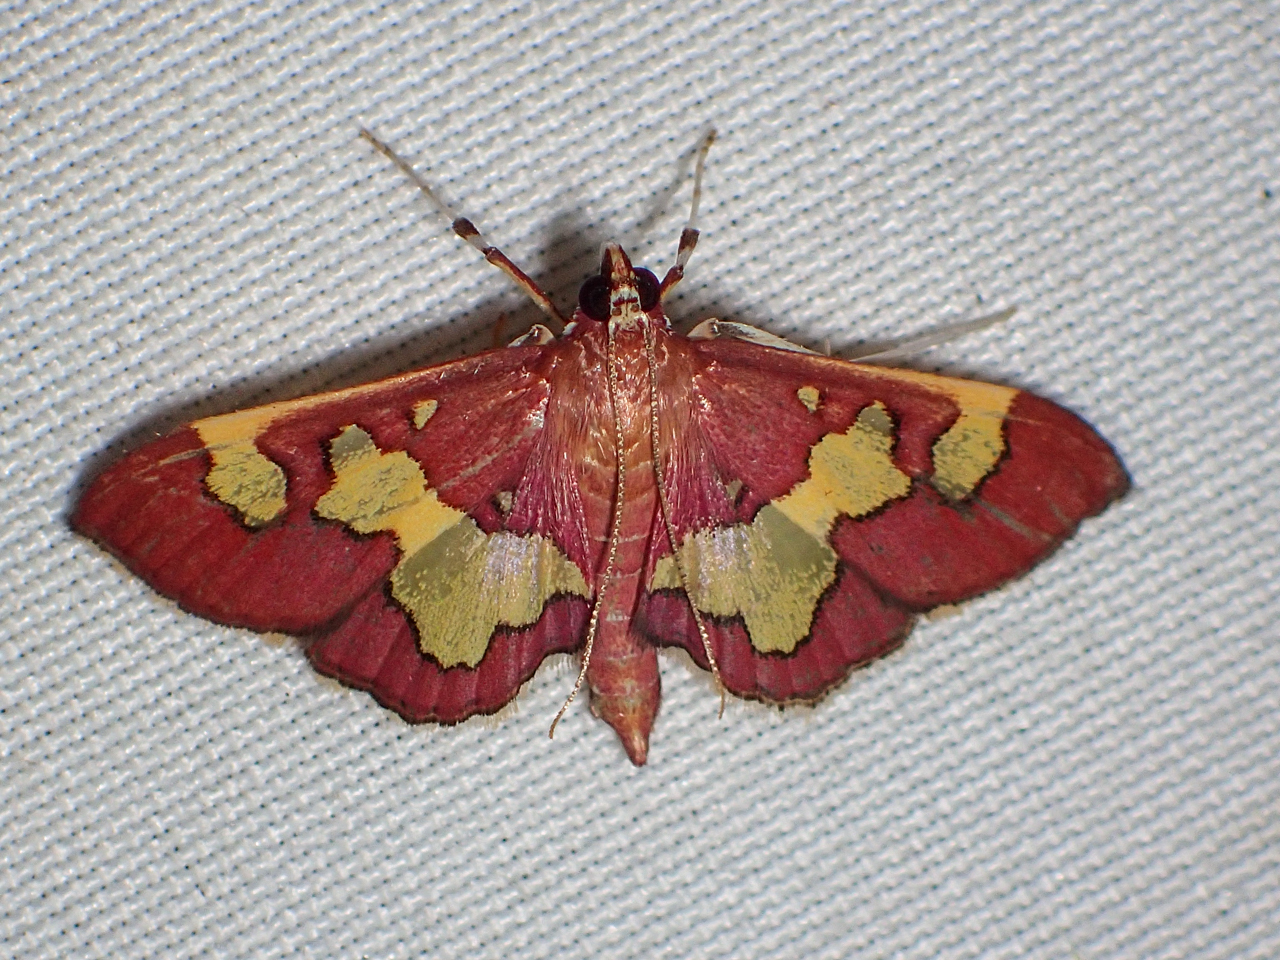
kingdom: Animalia
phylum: Arthropoda
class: Insecta
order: Lepidoptera
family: Crambidae
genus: Colomychus
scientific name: Colomychus talis
